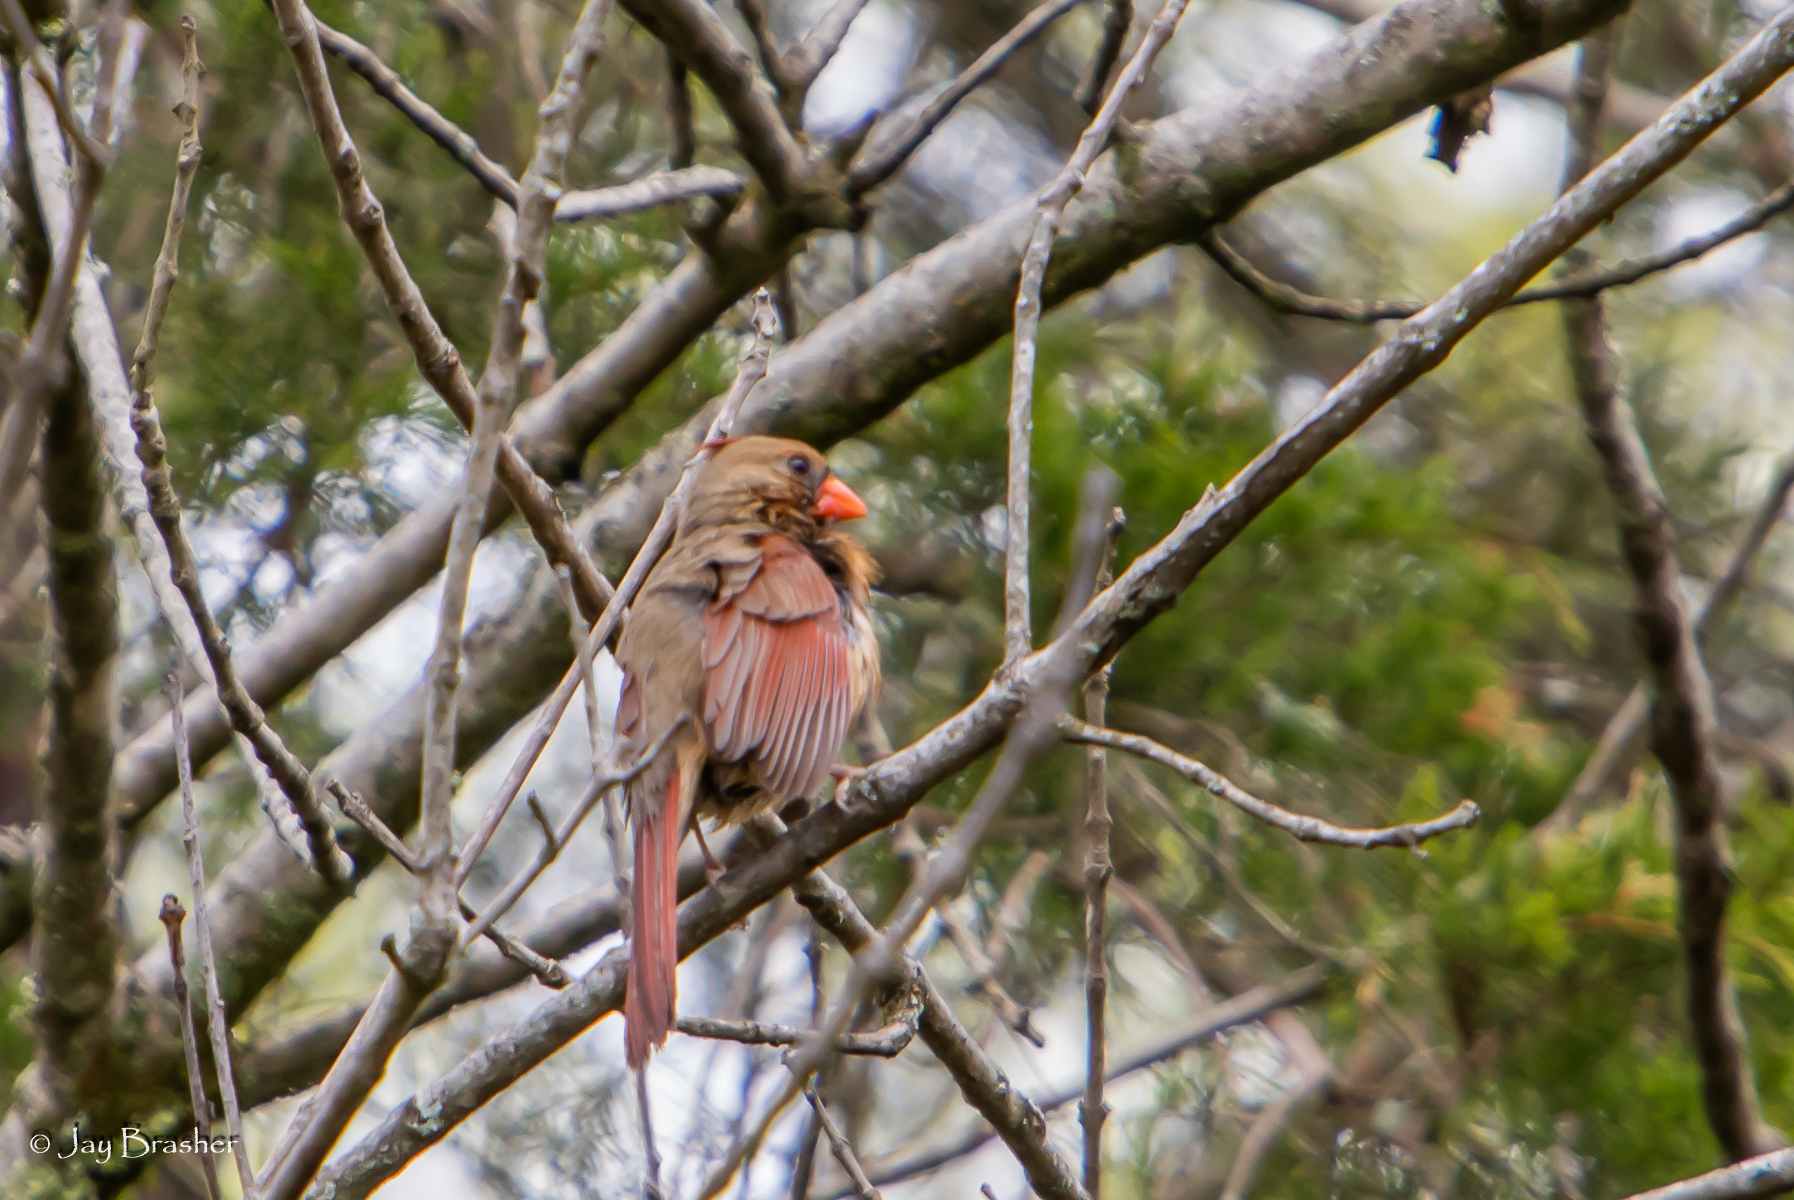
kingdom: Animalia
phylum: Chordata
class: Aves
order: Passeriformes
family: Cardinalidae
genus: Cardinalis
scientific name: Cardinalis cardinalis
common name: Northern cardinal
